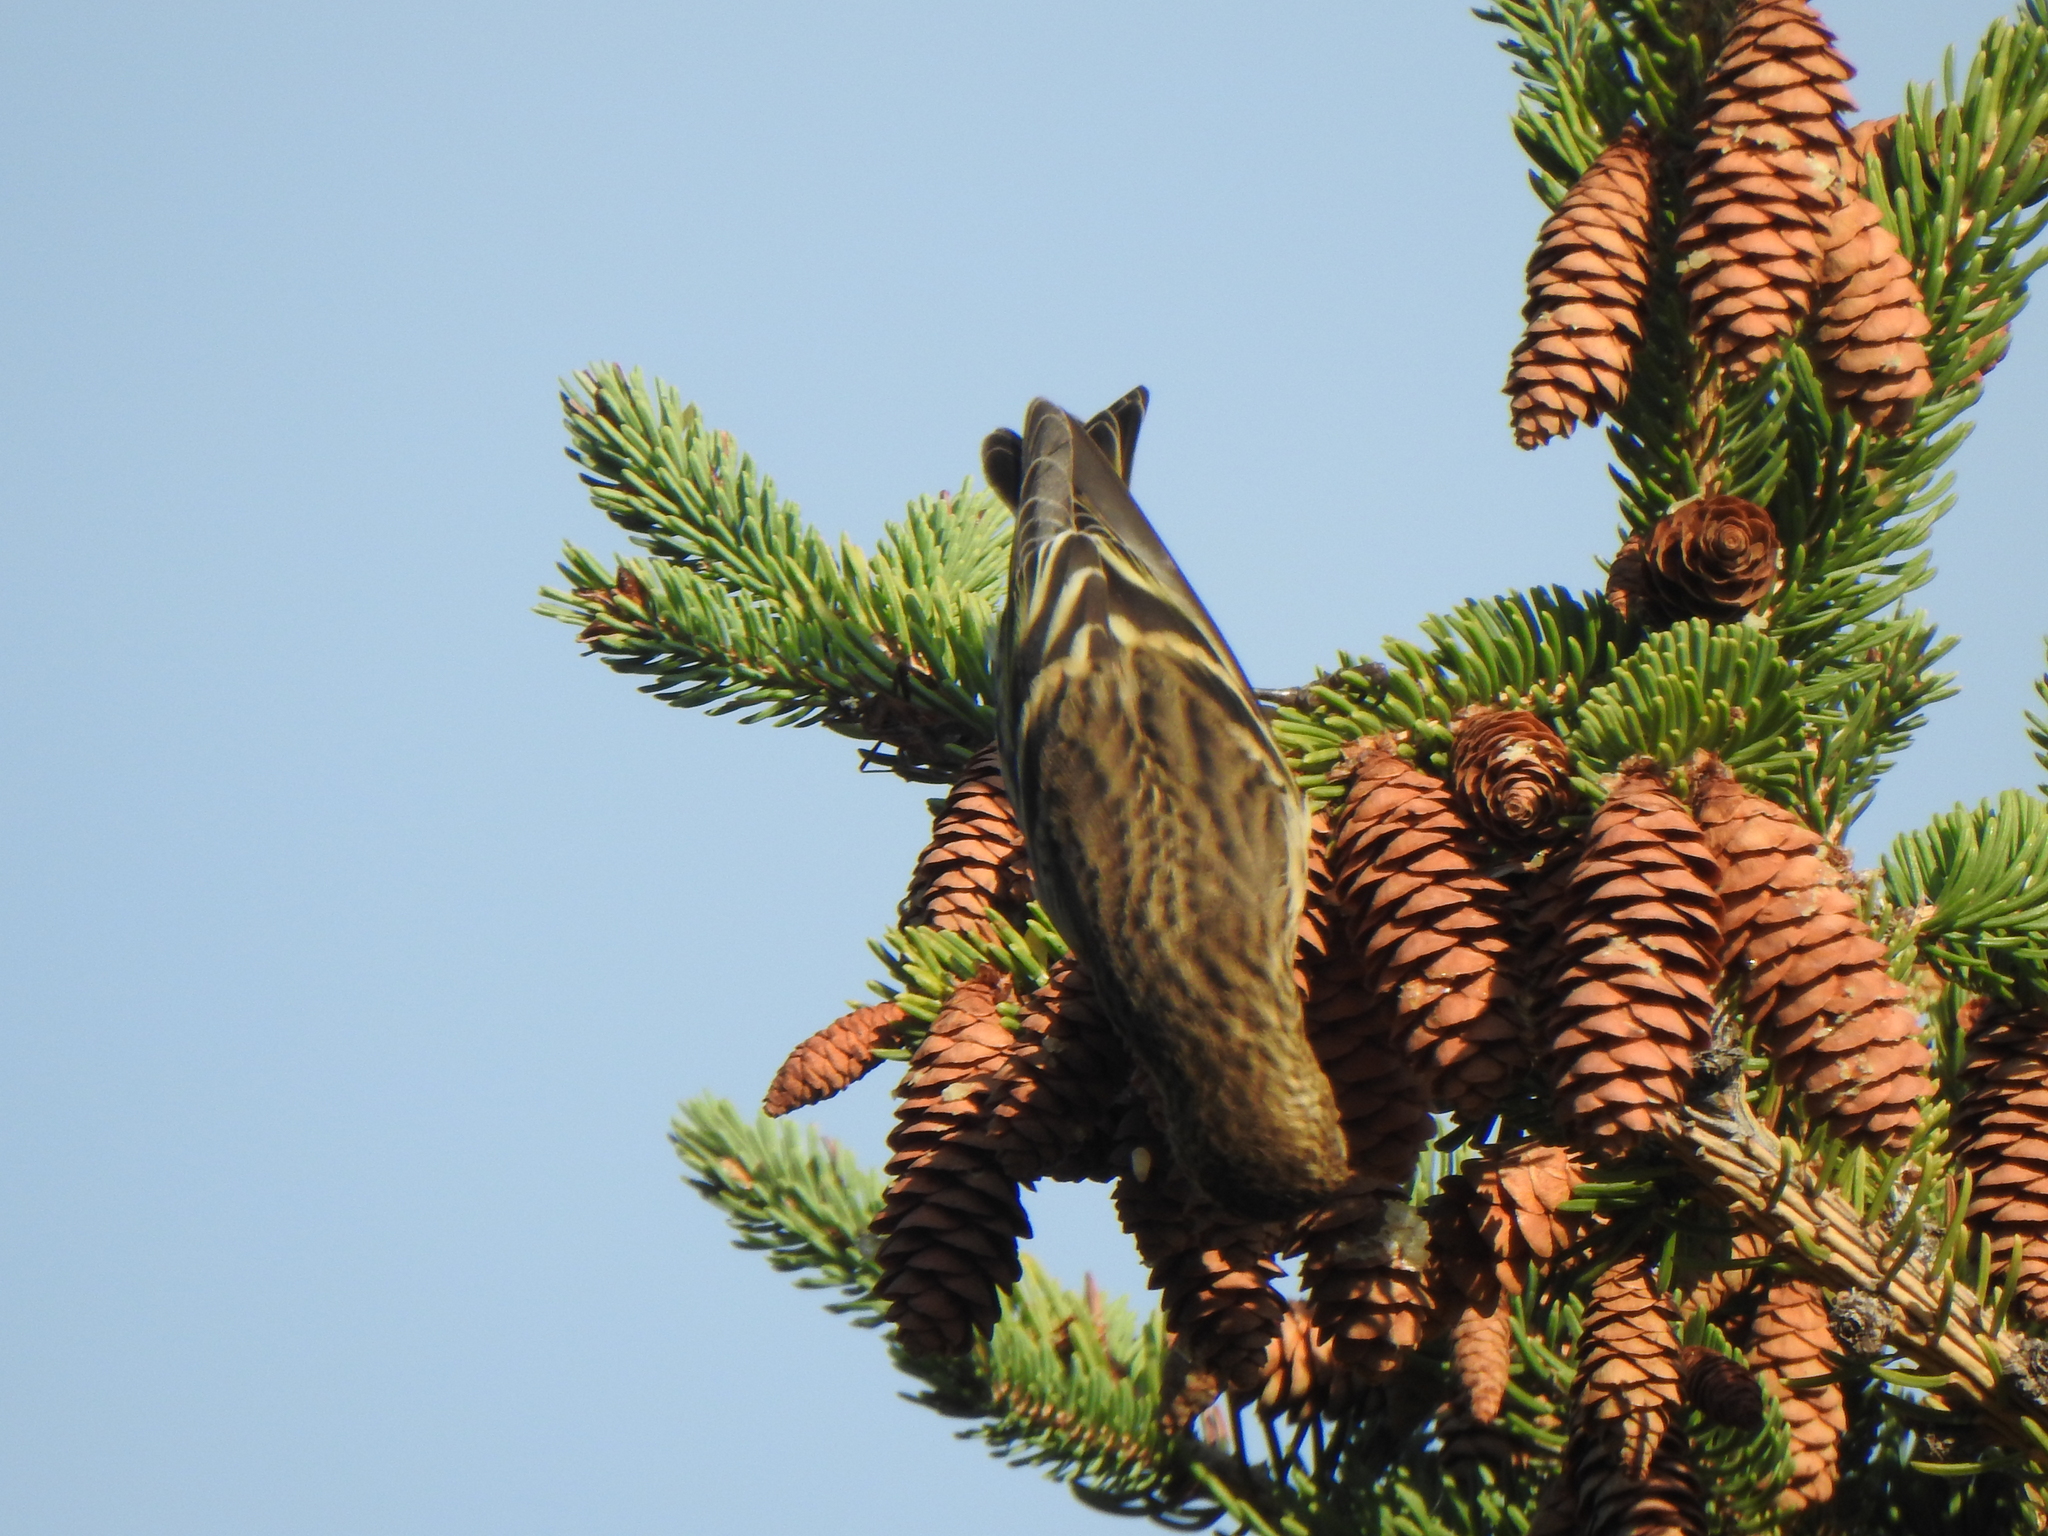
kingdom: Animalia
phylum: Chordata
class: Aves
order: Passeriformes
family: Fringillidae
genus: Spinus
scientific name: Spinus pinus
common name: Pine siskin
